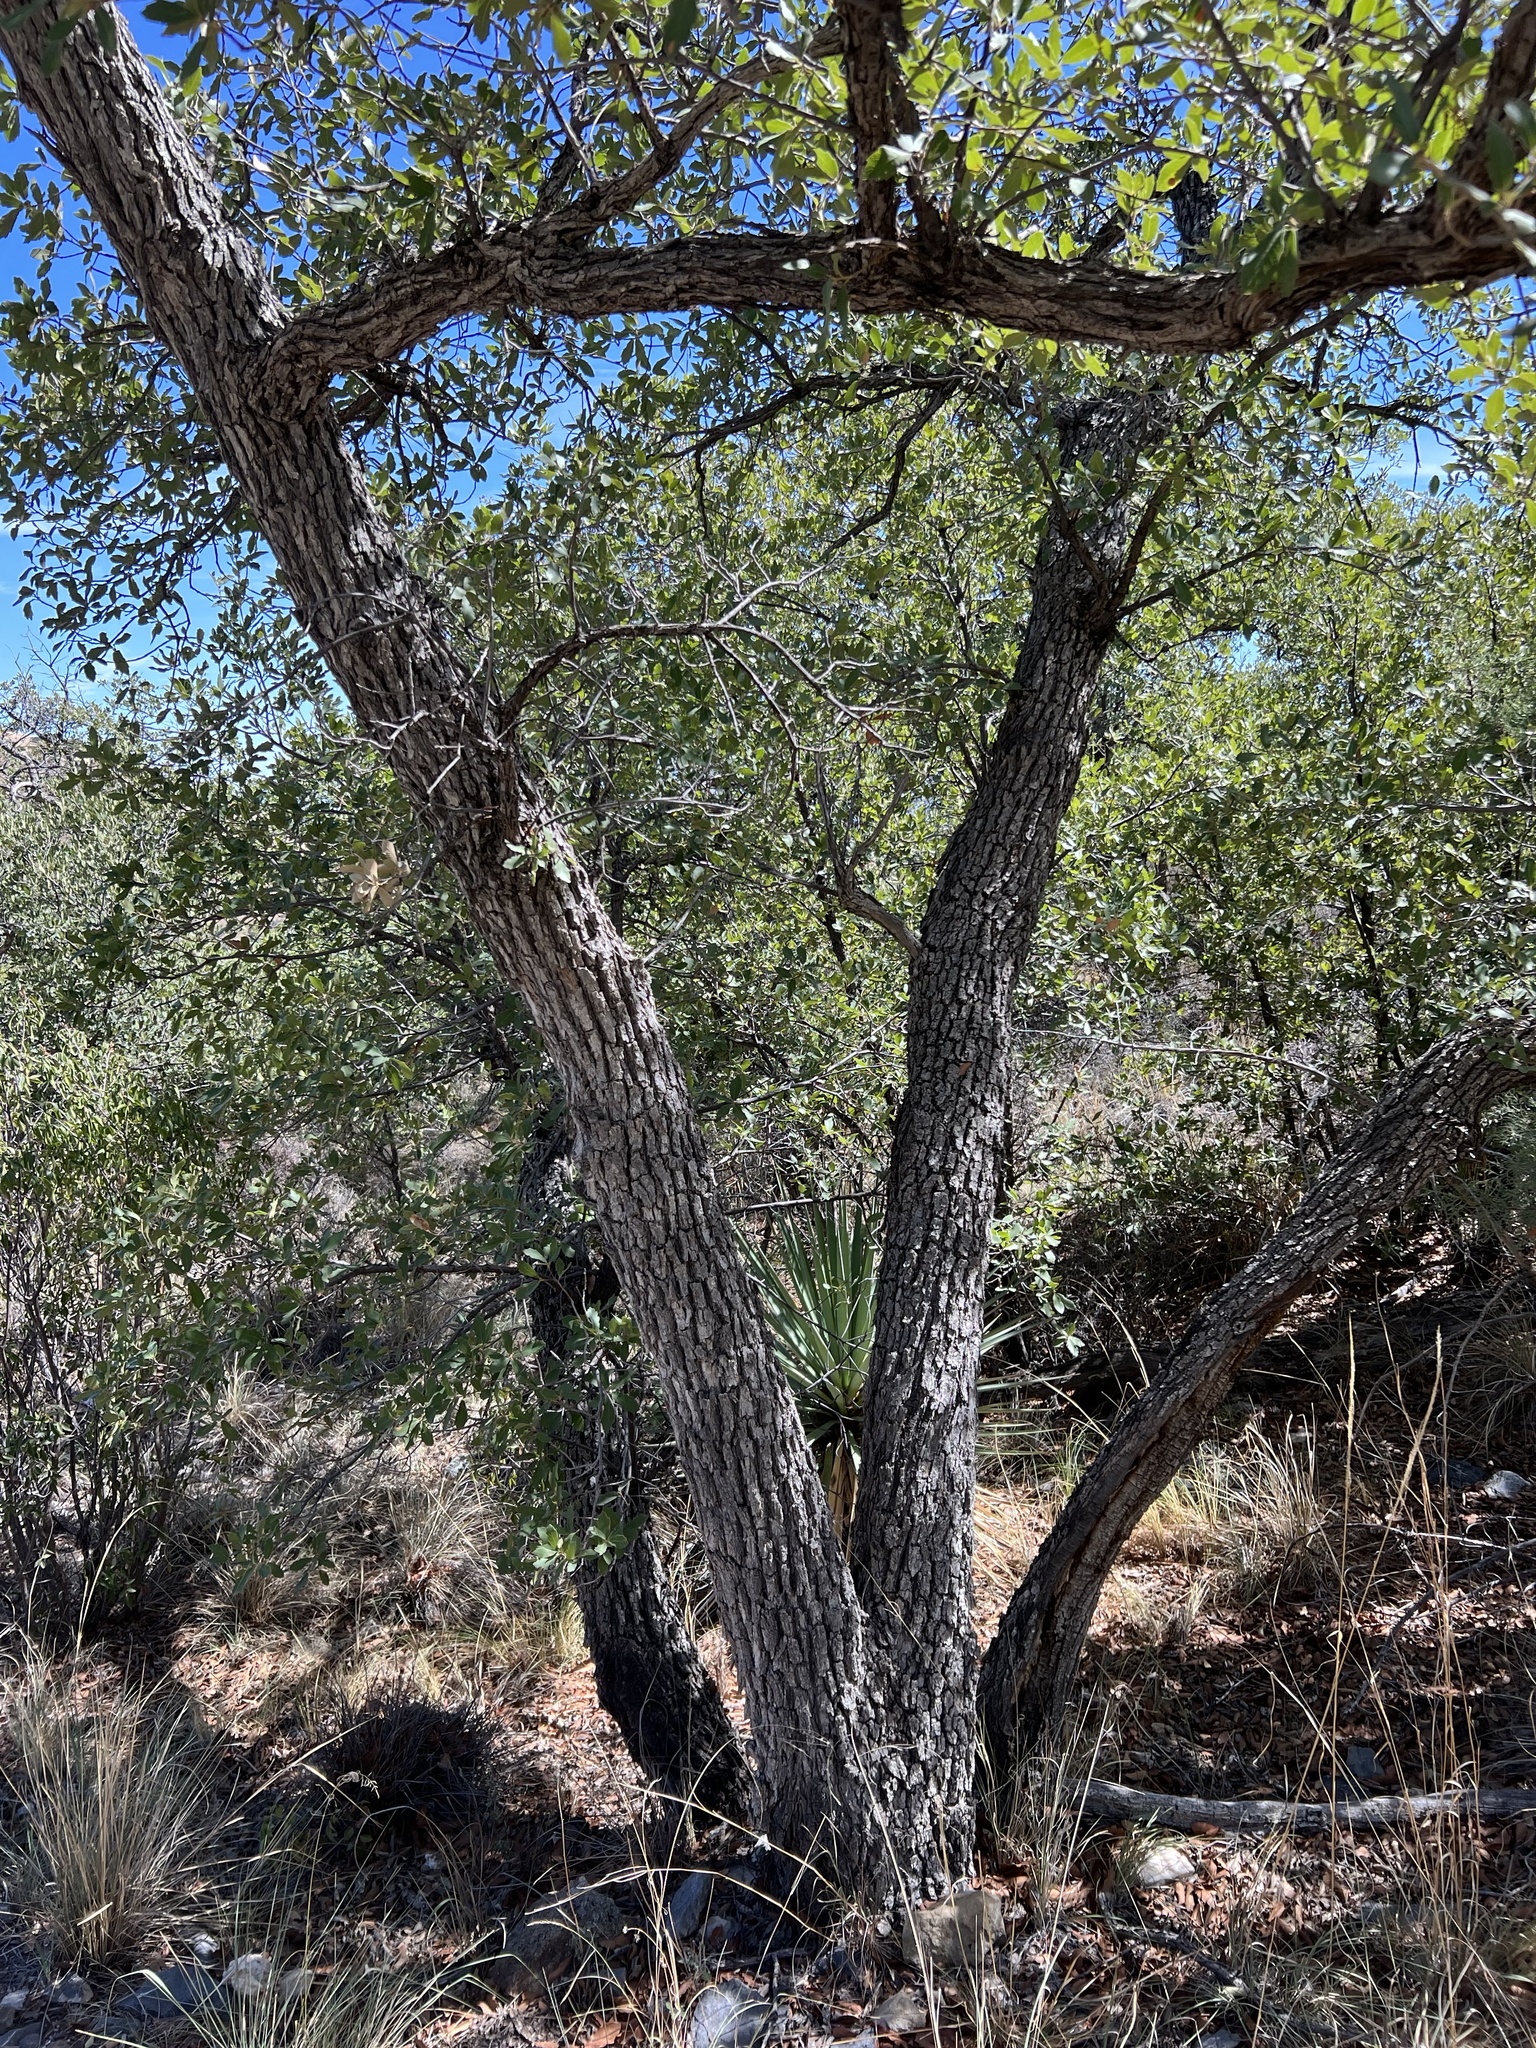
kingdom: Plantae
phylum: Tracheophyta
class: Magnoliopsida
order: Fagales
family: Fagaceae
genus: Quercus
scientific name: Quercus arizonica
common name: Arizona white oak
